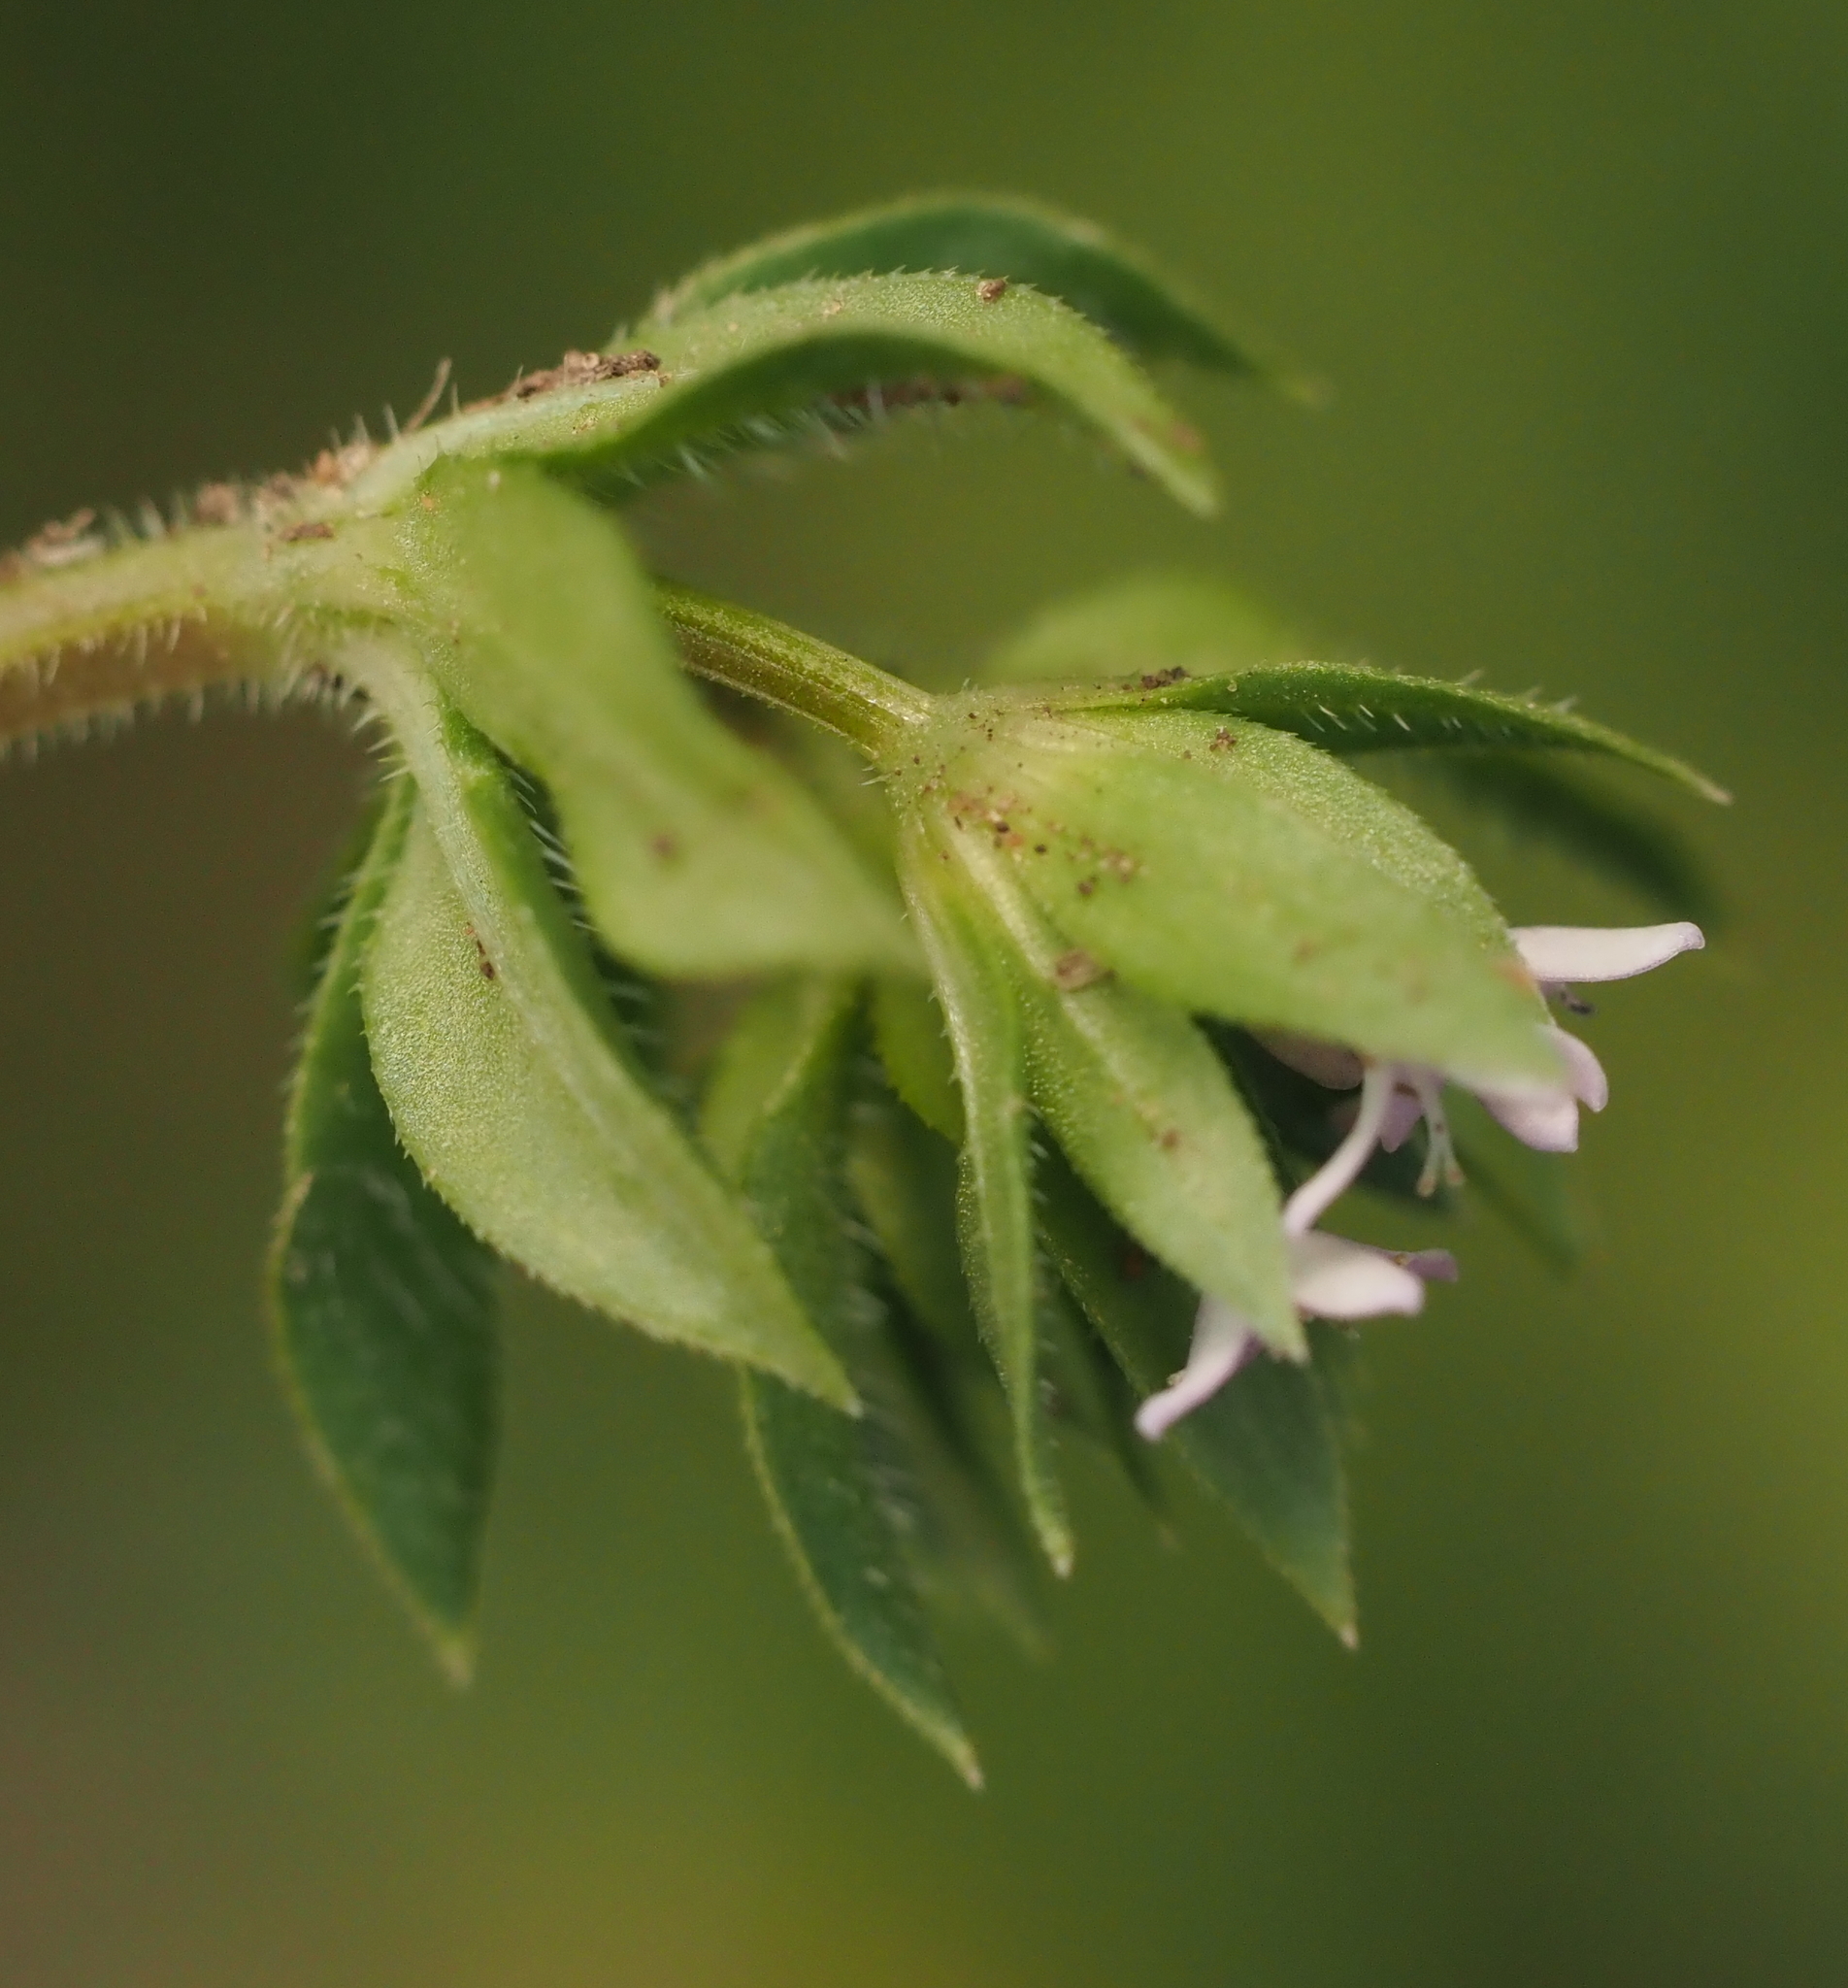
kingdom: Plantae
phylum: Tracheophyta
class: Magnoliopsida
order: Gentianales
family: Rubiaceae
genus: Sherardia
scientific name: Sherardia arvensis
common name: Field madder
